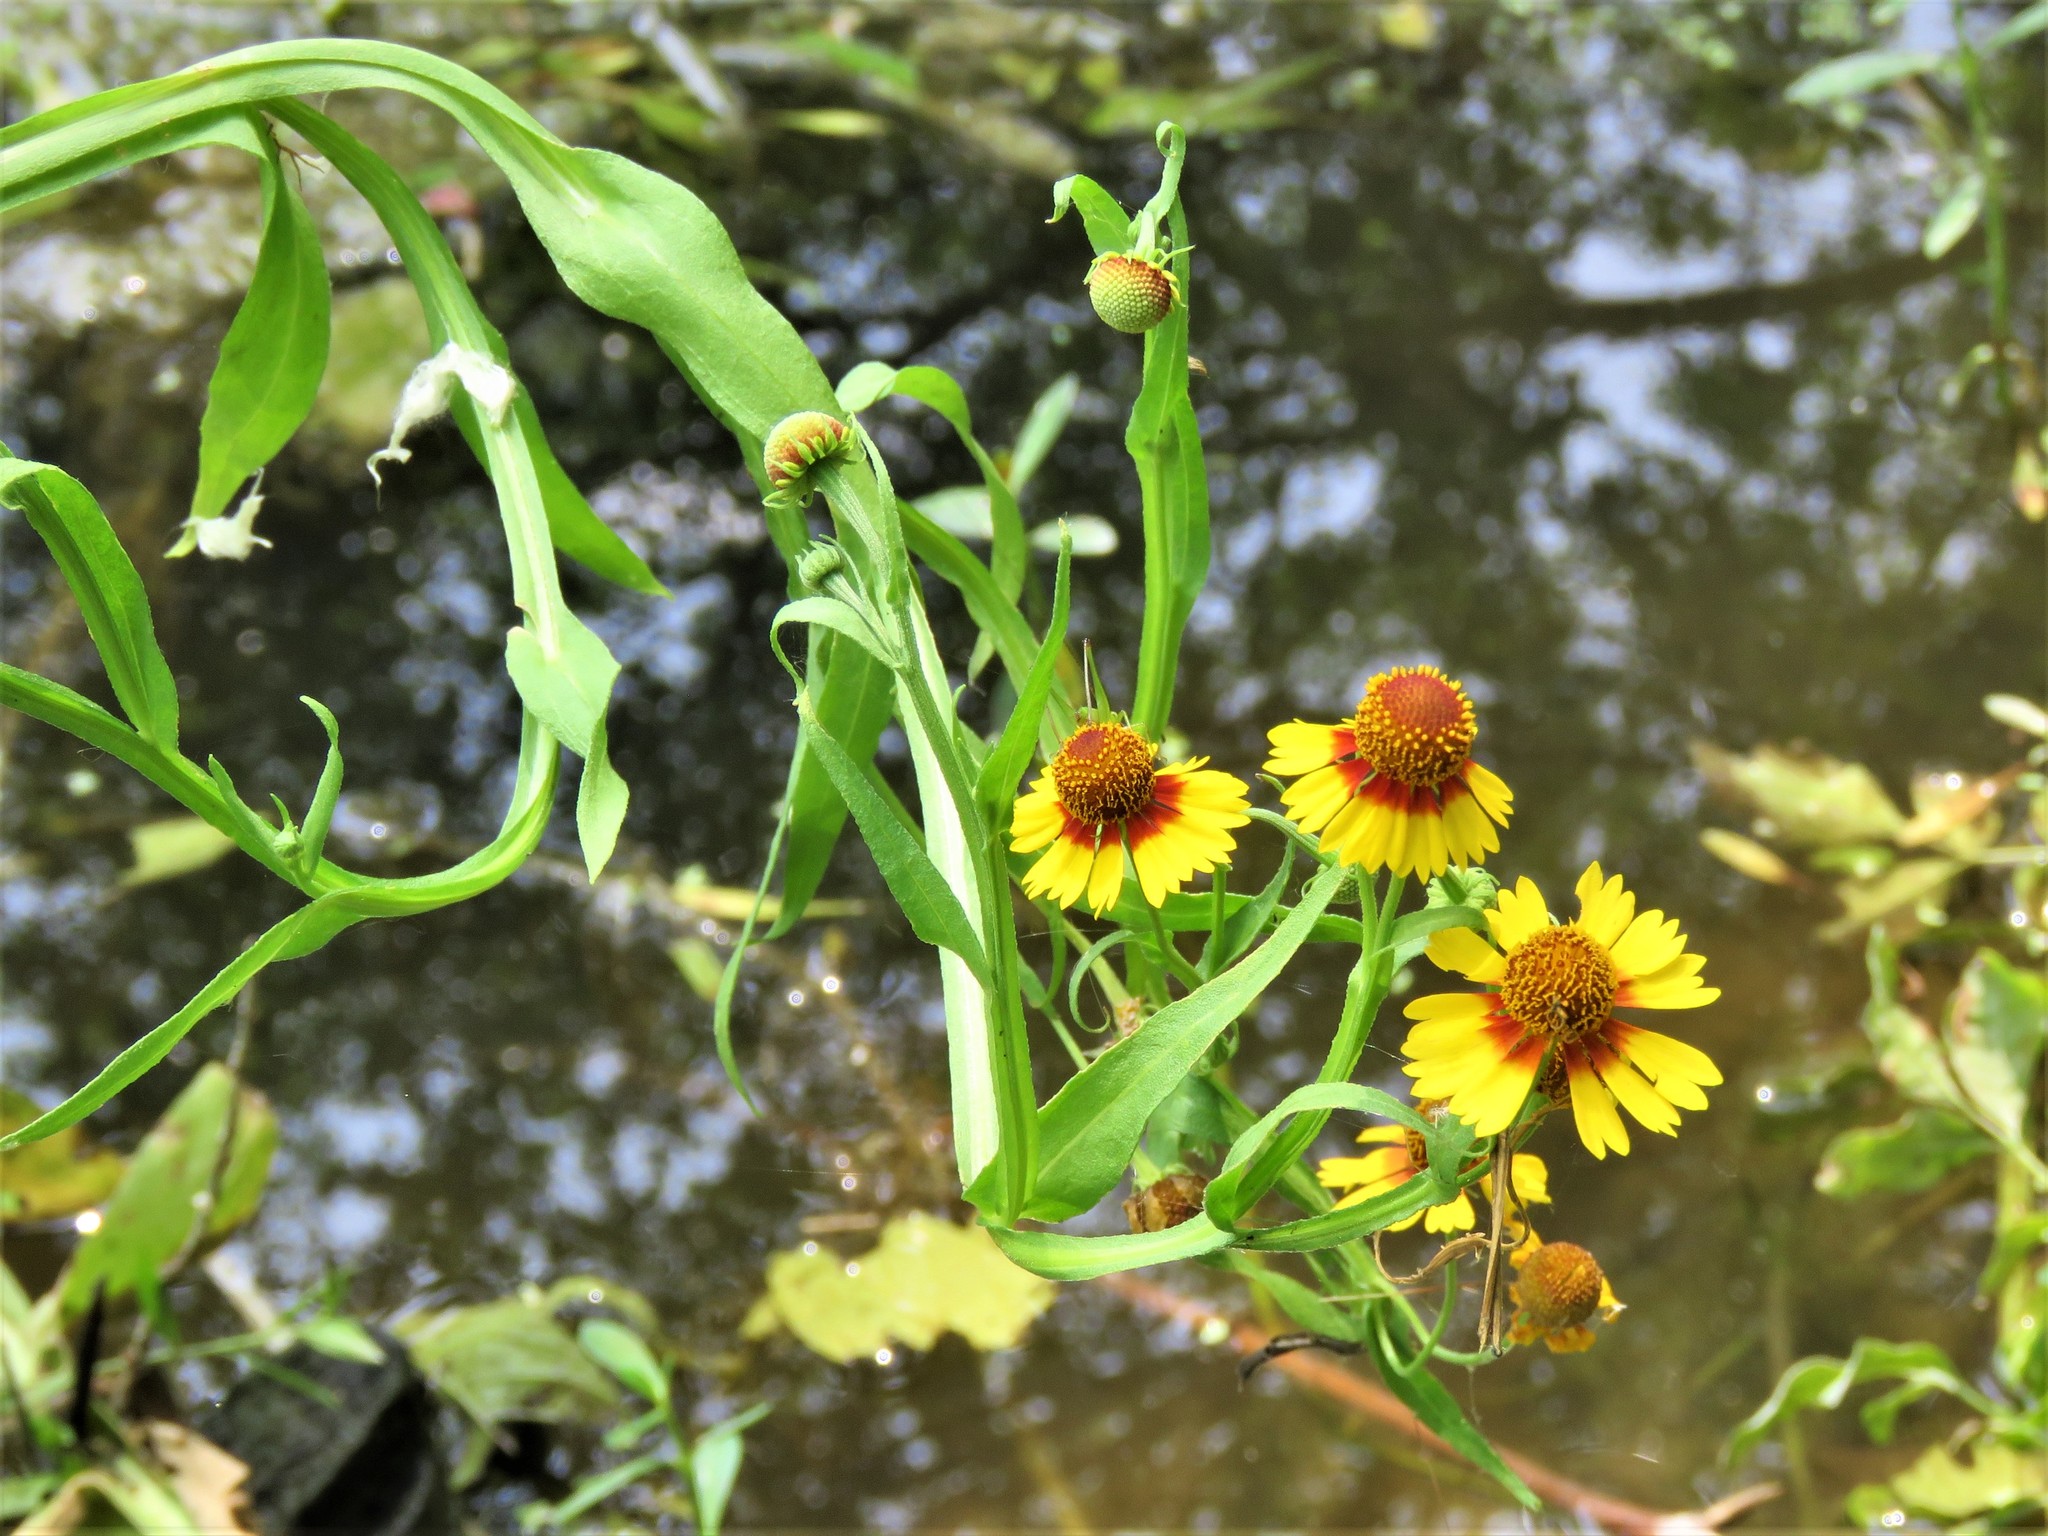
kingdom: Plantae
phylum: Tracheophyta
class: Magnoliopsida
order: Asterales
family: Asteraceae
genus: Helenium
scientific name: Helenium elegans
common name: Pretty sneezeweed
